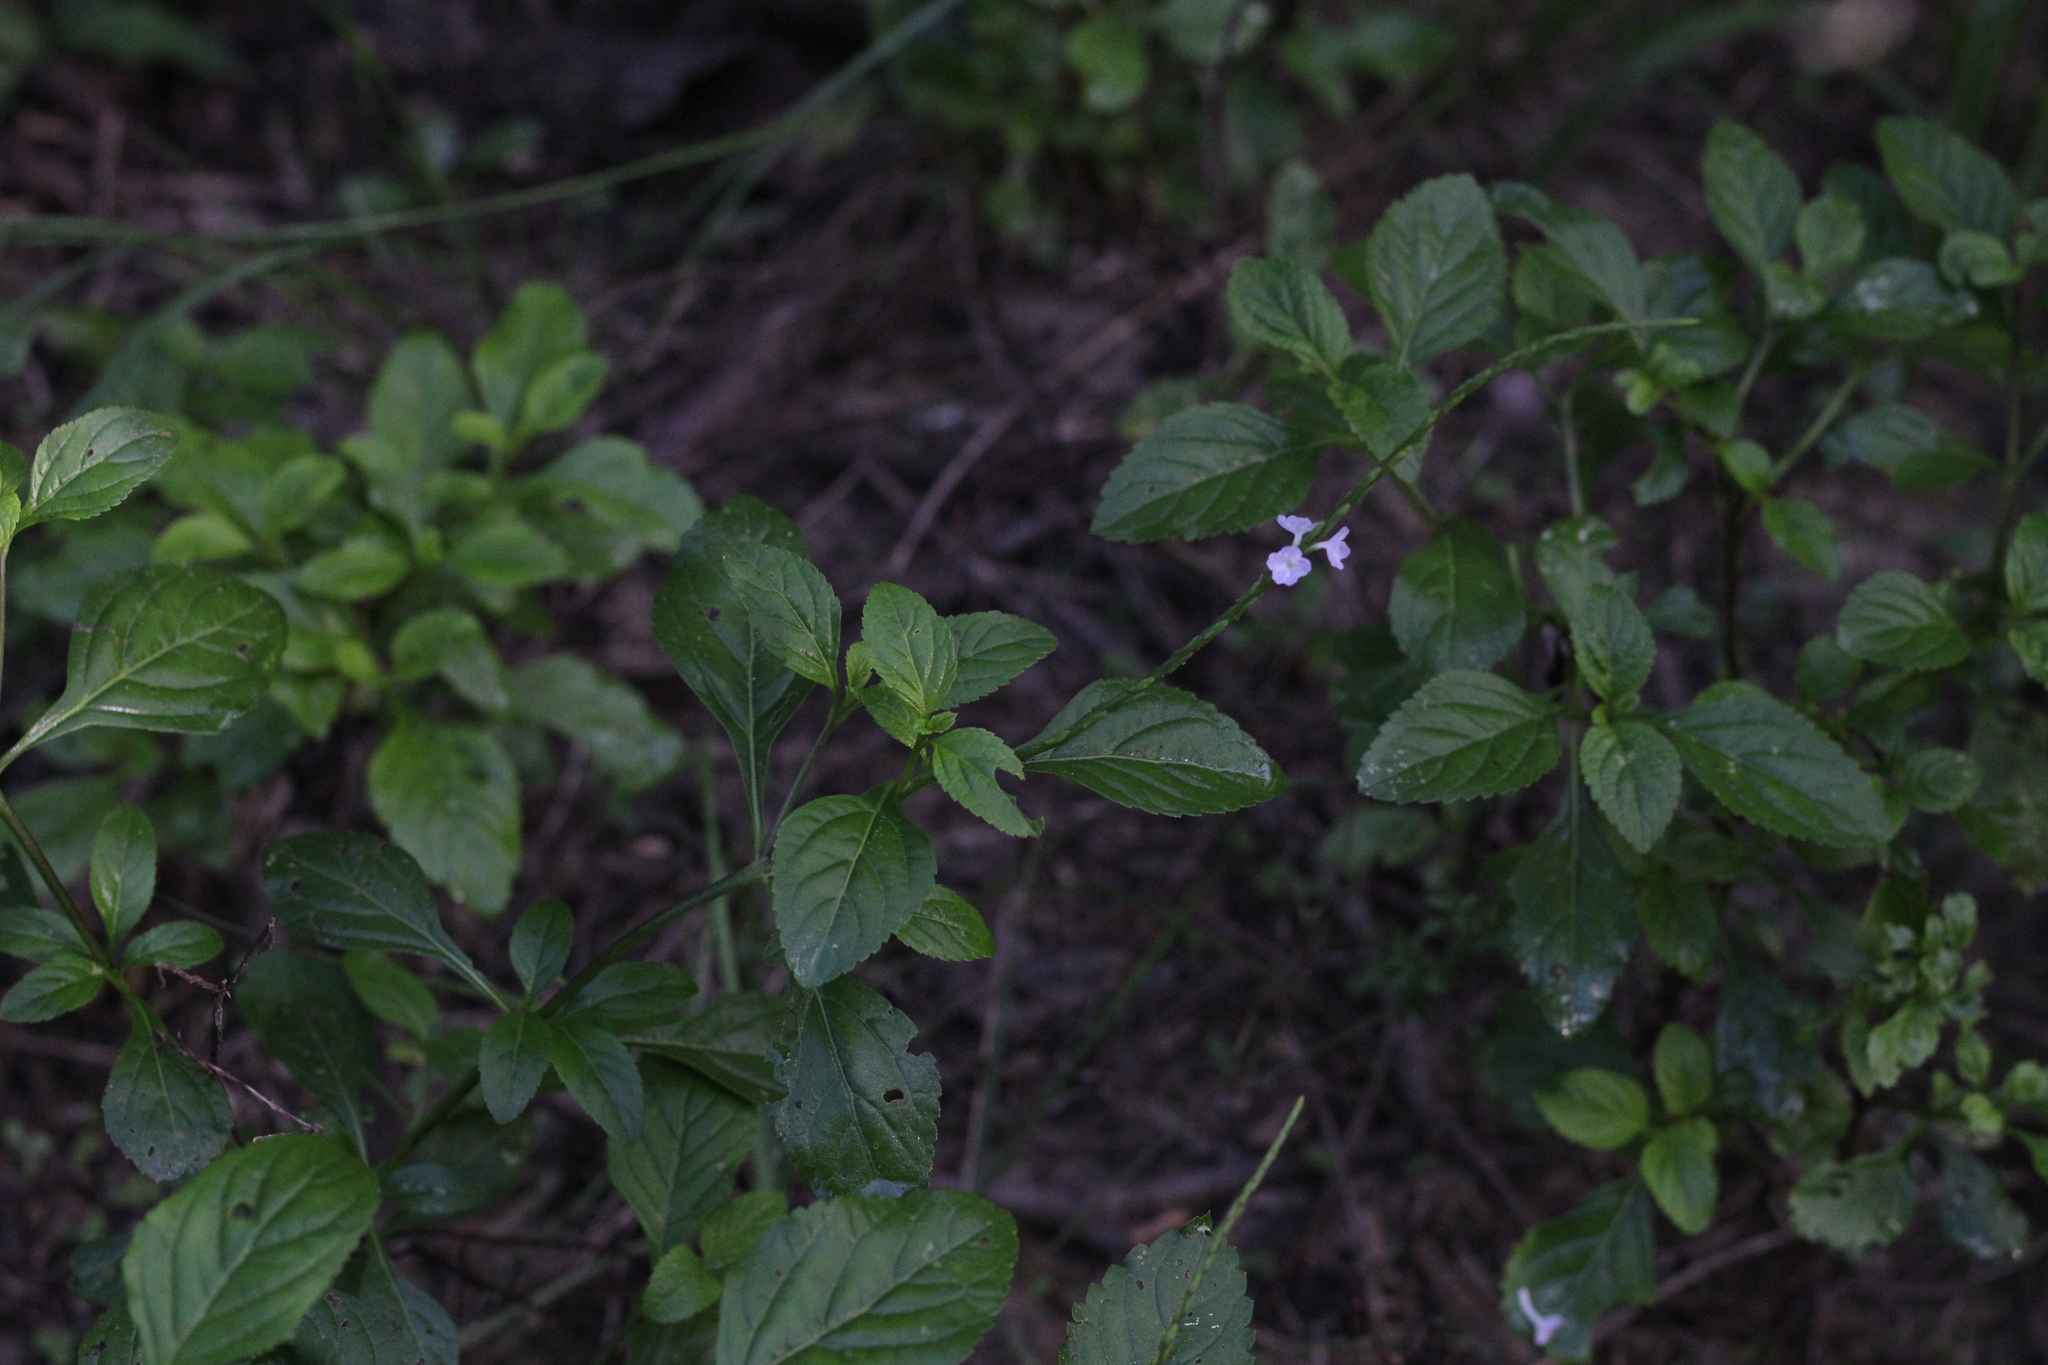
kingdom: Plantae
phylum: Tracheophyta
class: Magnoliopsida
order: Lamiales
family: Verbenaceae
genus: Stachytarpheta
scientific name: Stachytarpheta cayennensis
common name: Cayenne porterweed
